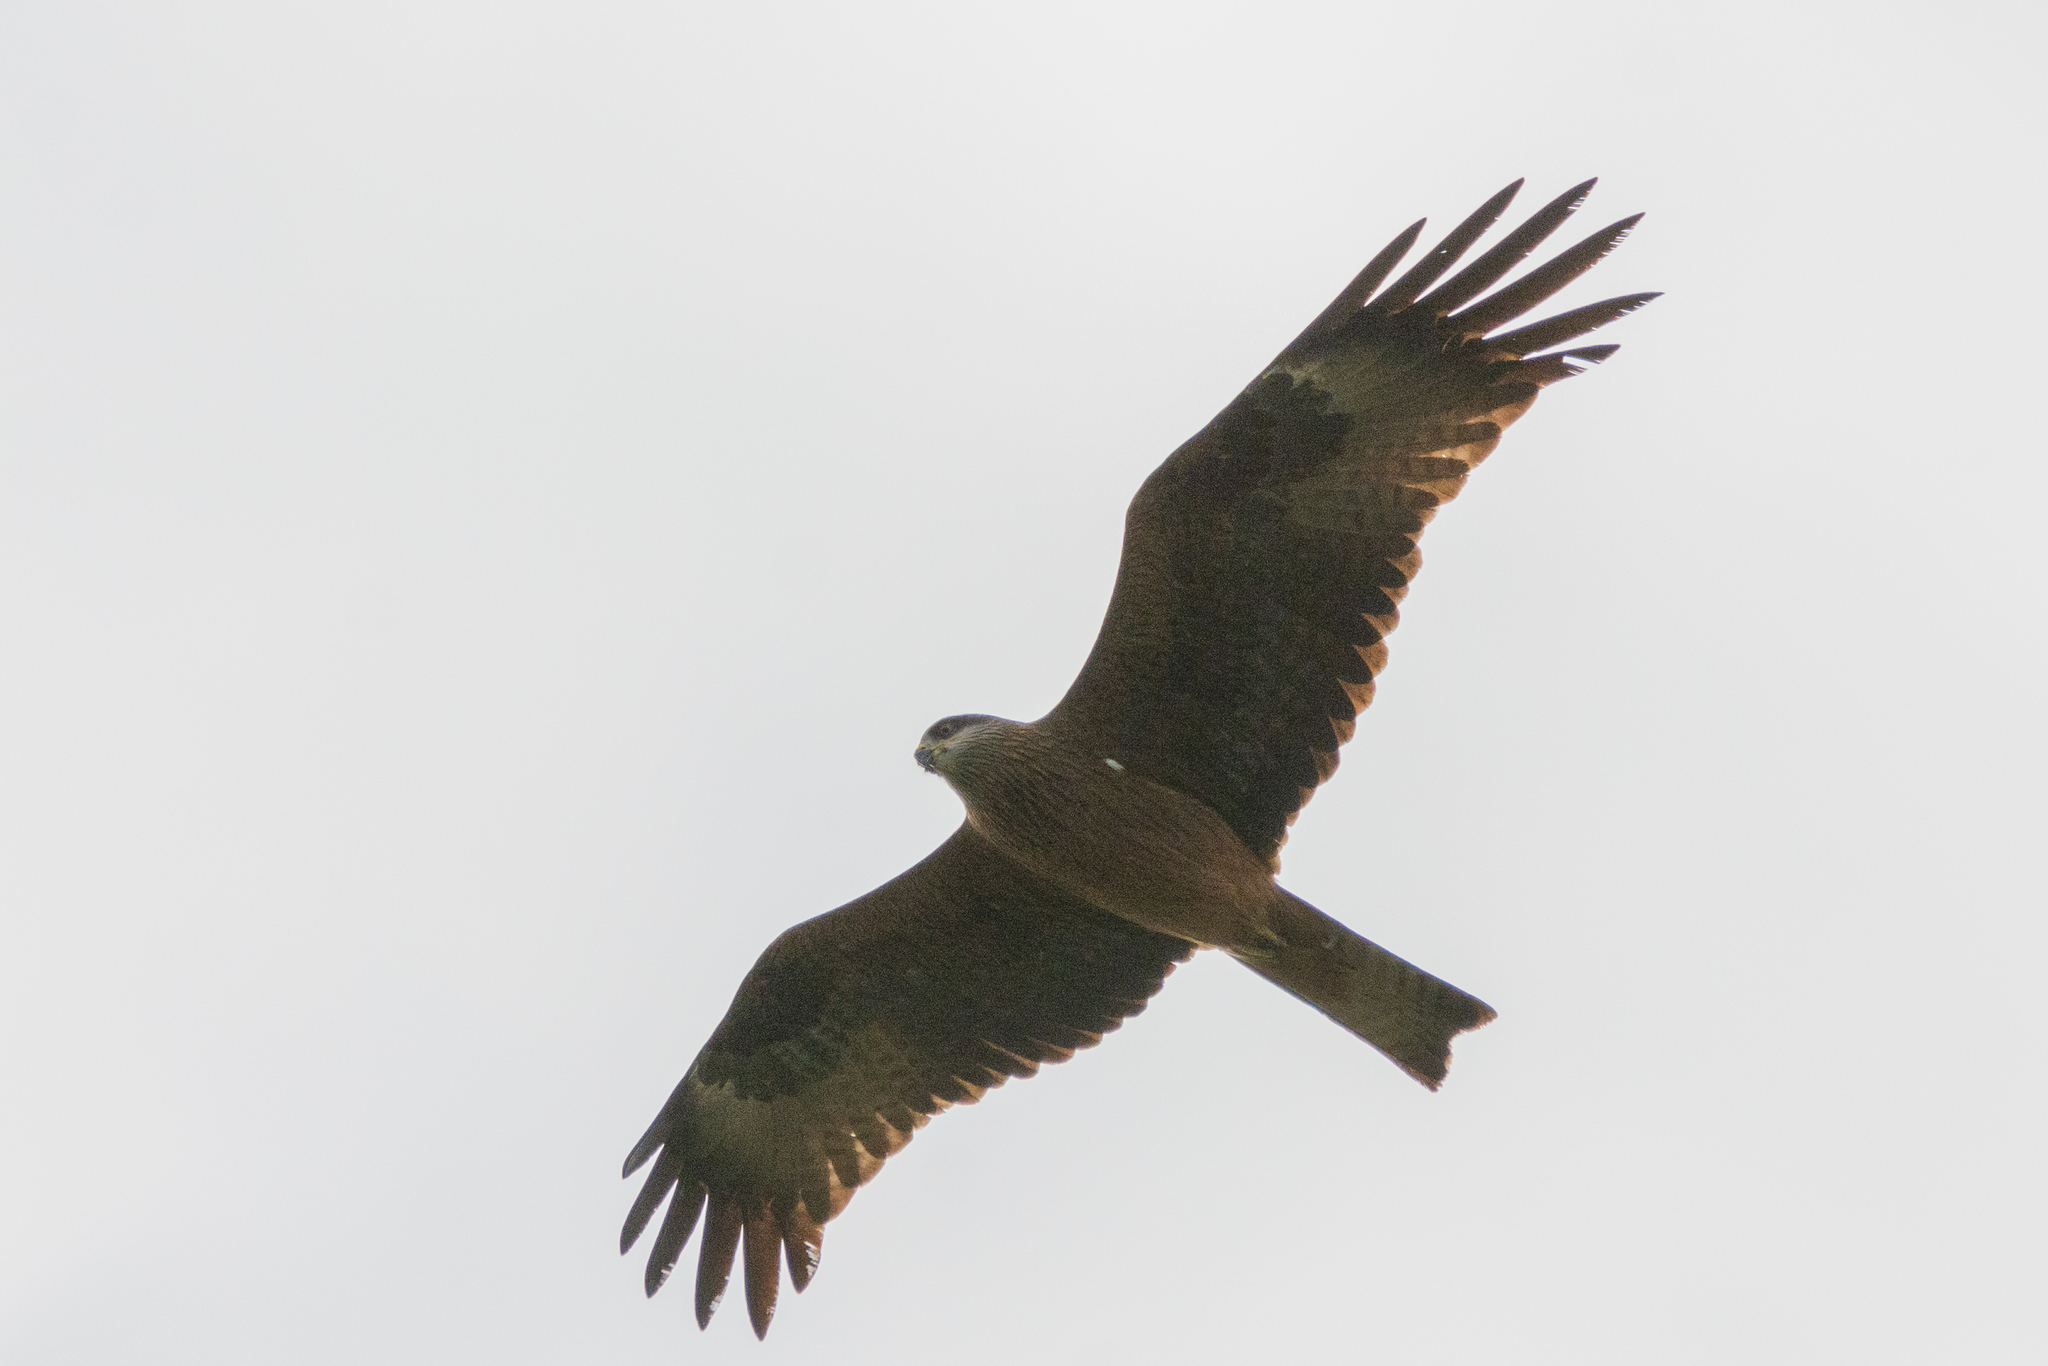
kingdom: Animalia
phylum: Chordata
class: Aves
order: Accipitriformes
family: Accipitridae
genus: Milvus
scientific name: Milvus migrans
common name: Black kite
